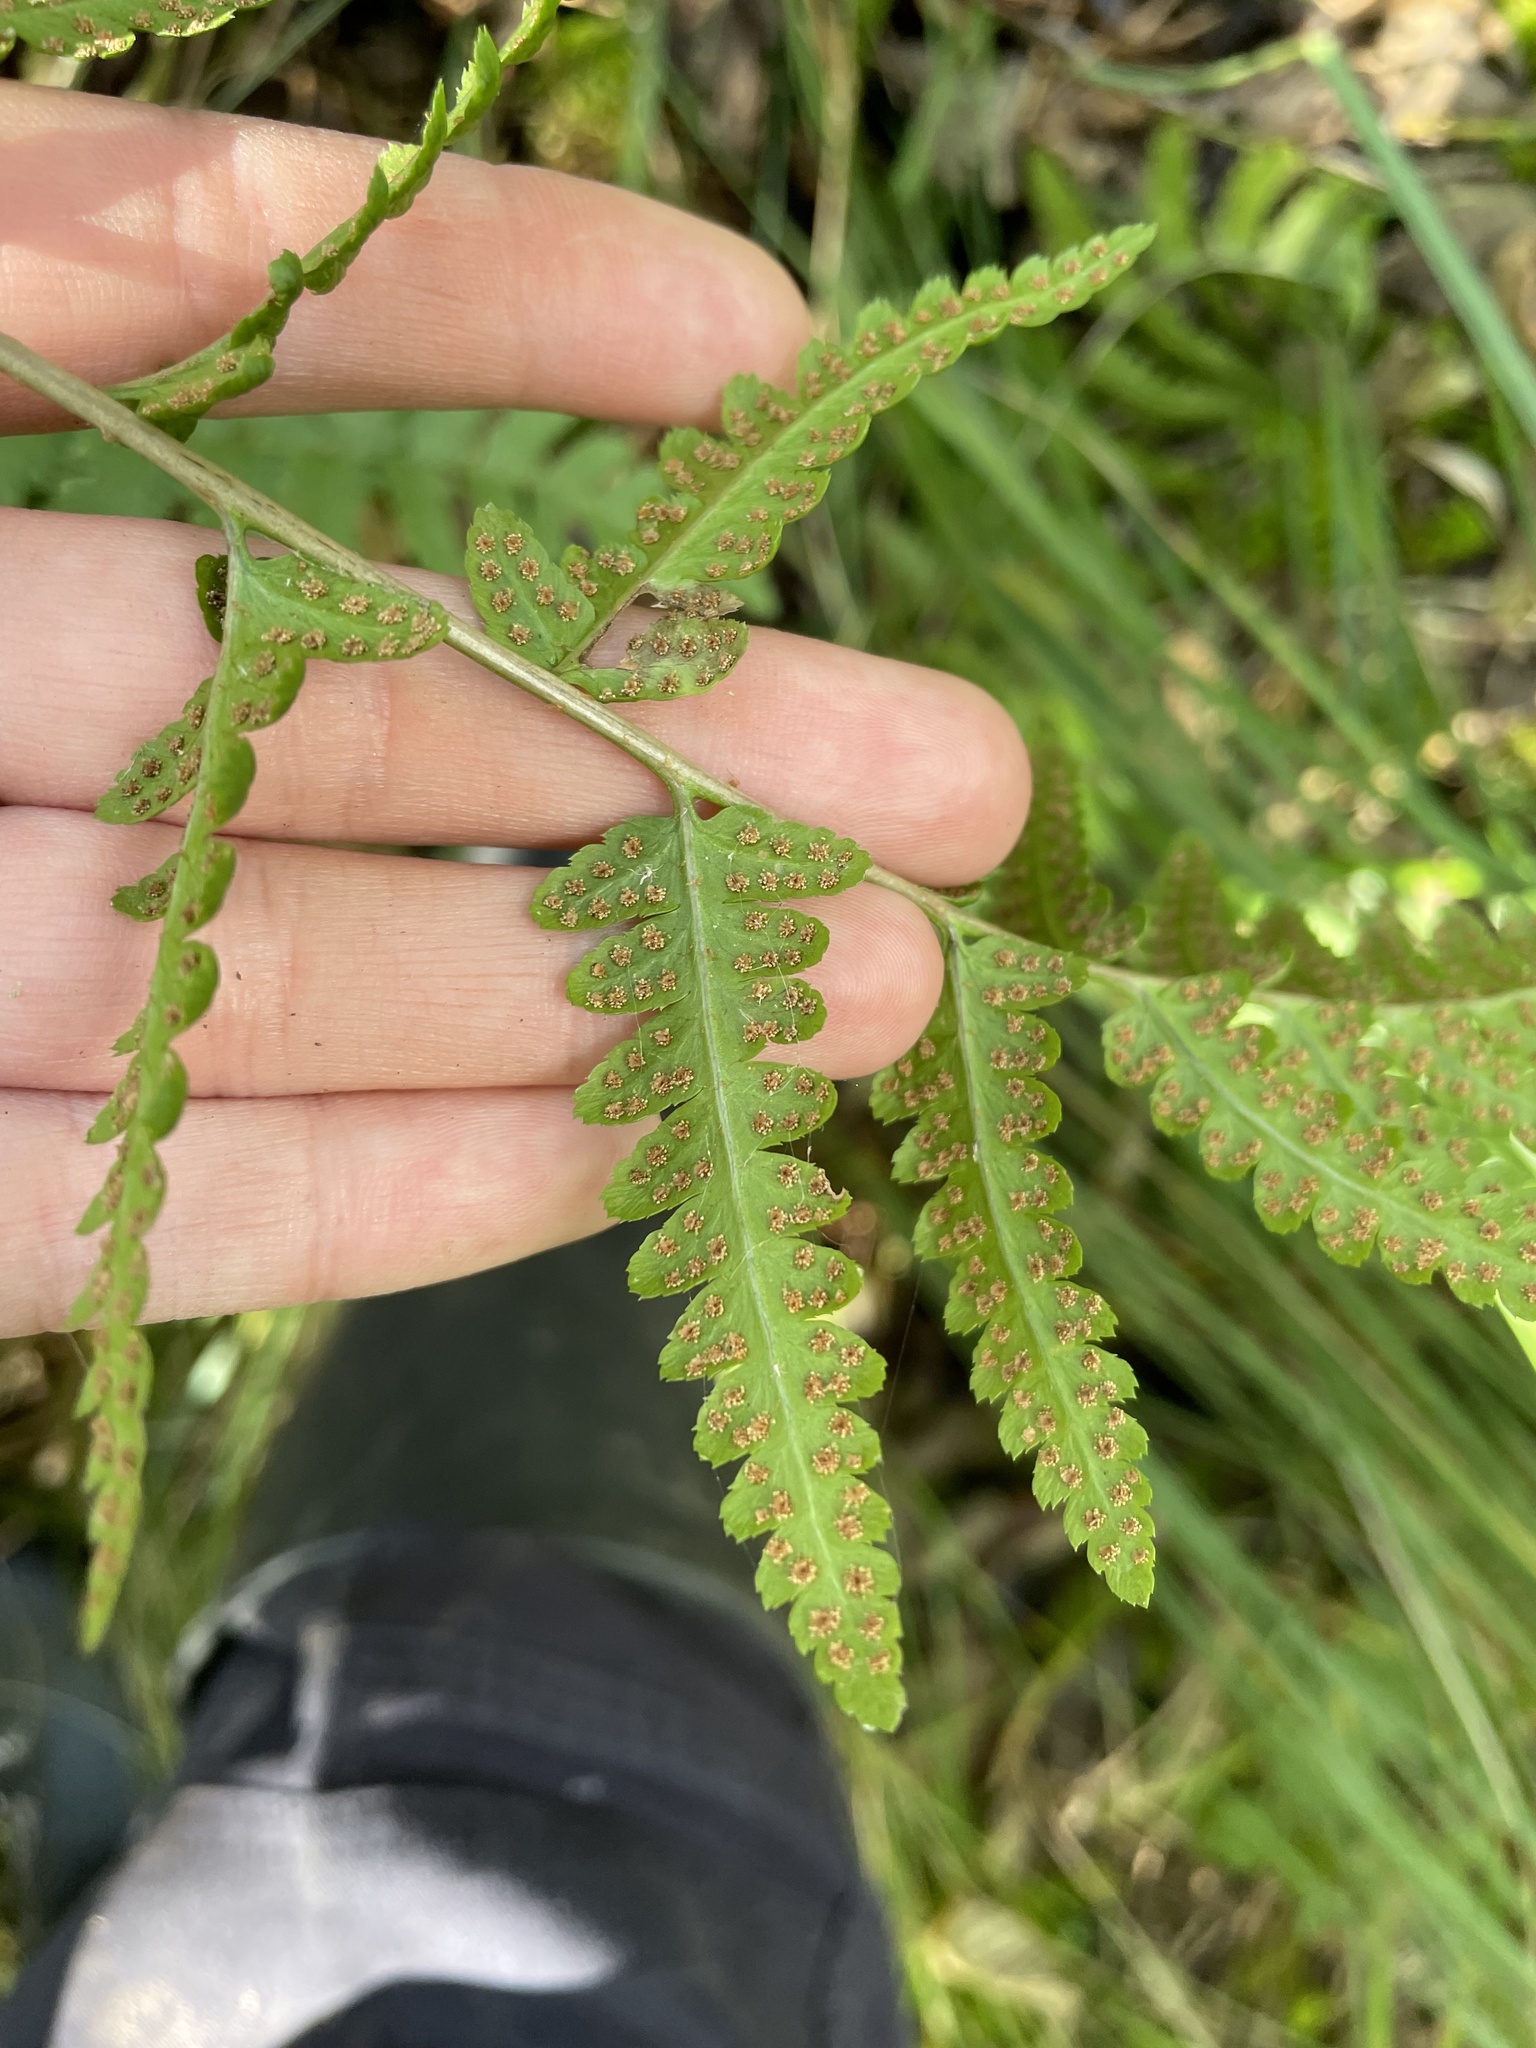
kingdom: Plantae
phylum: Tracheophyta
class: Polypodiopsida
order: Polypodiales
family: Dryopteridaceae
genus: Dryopteris
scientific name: Dryopteris cristata
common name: Crested wood fern
